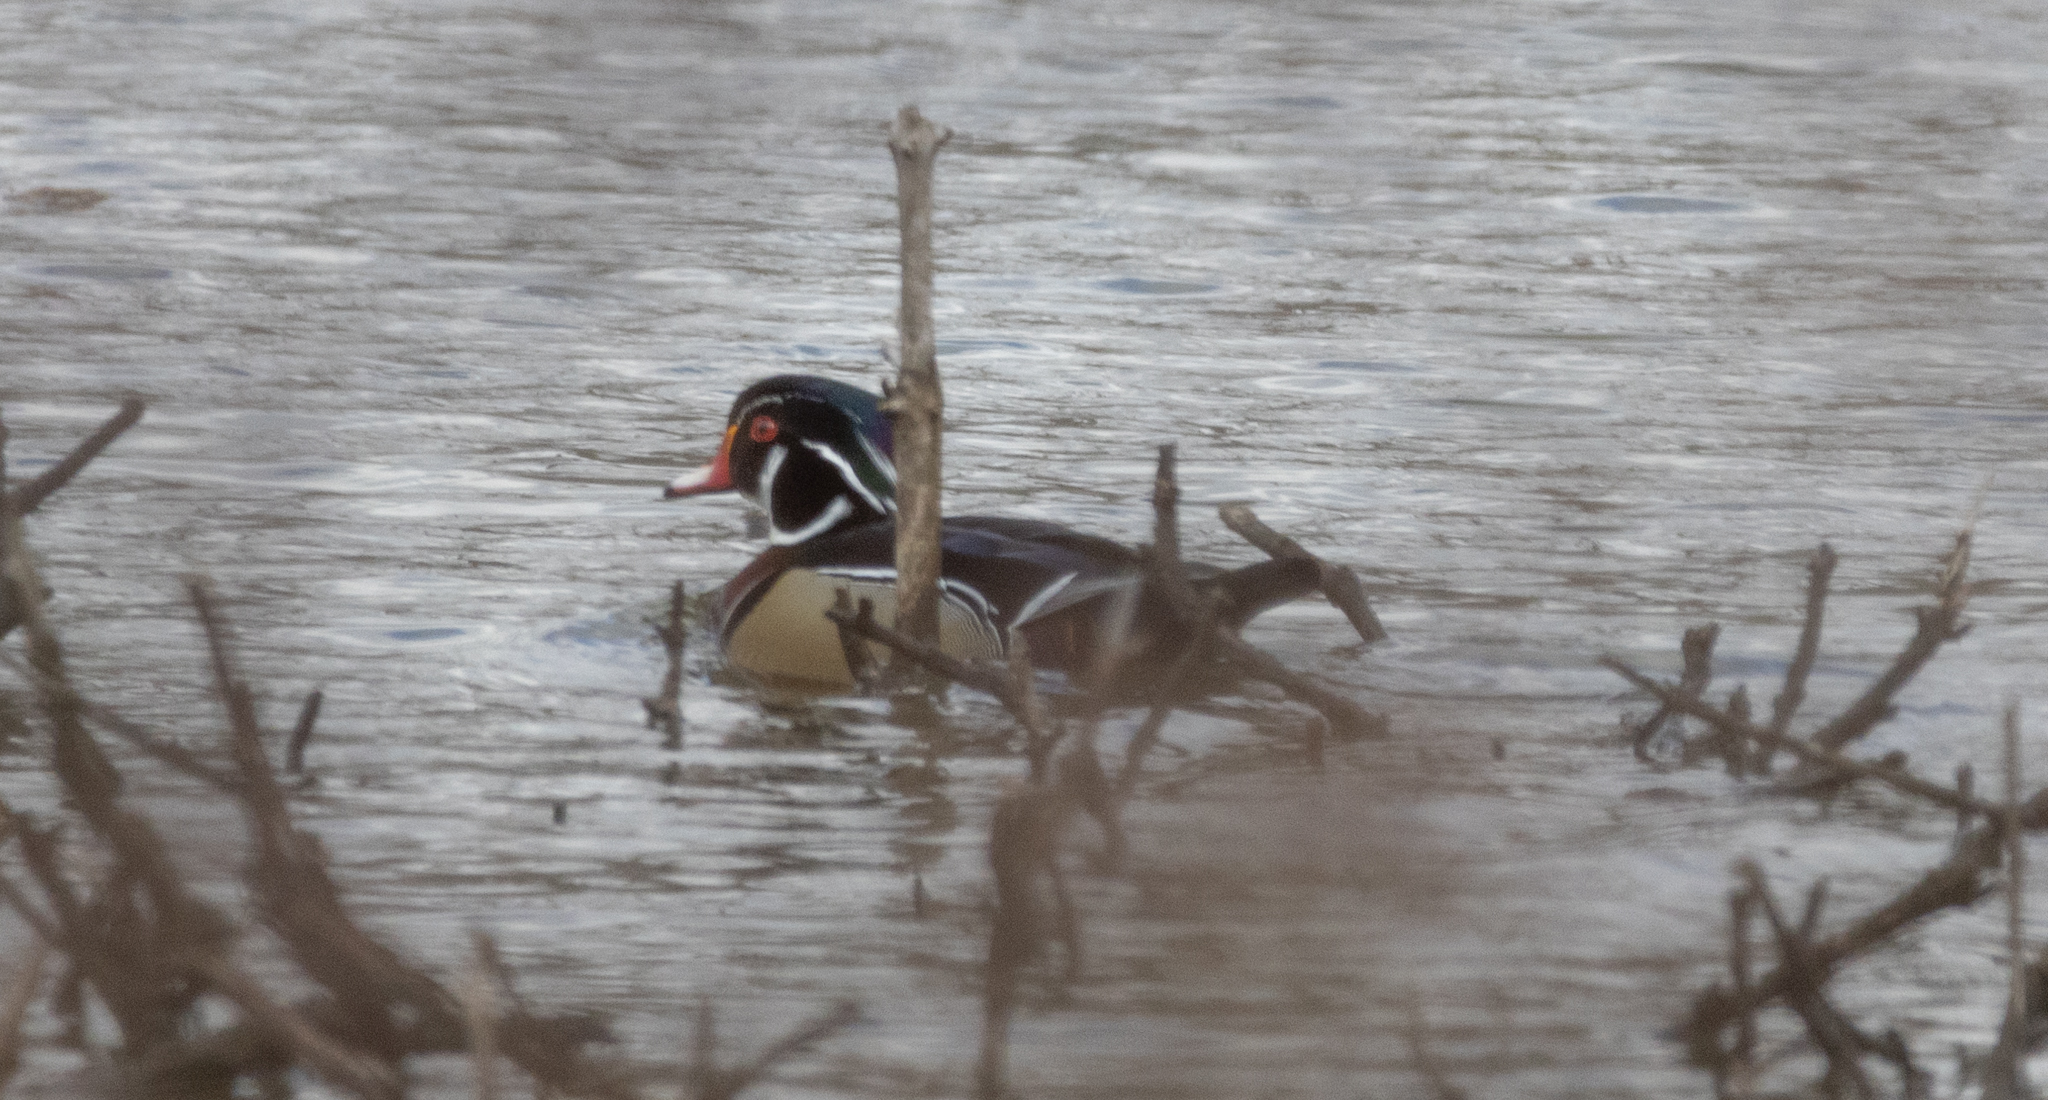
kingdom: Animalia
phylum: Chordata
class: Aves
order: Anseriformes
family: Anatidae
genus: Aix
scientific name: Aix sponsa
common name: Wood duck
